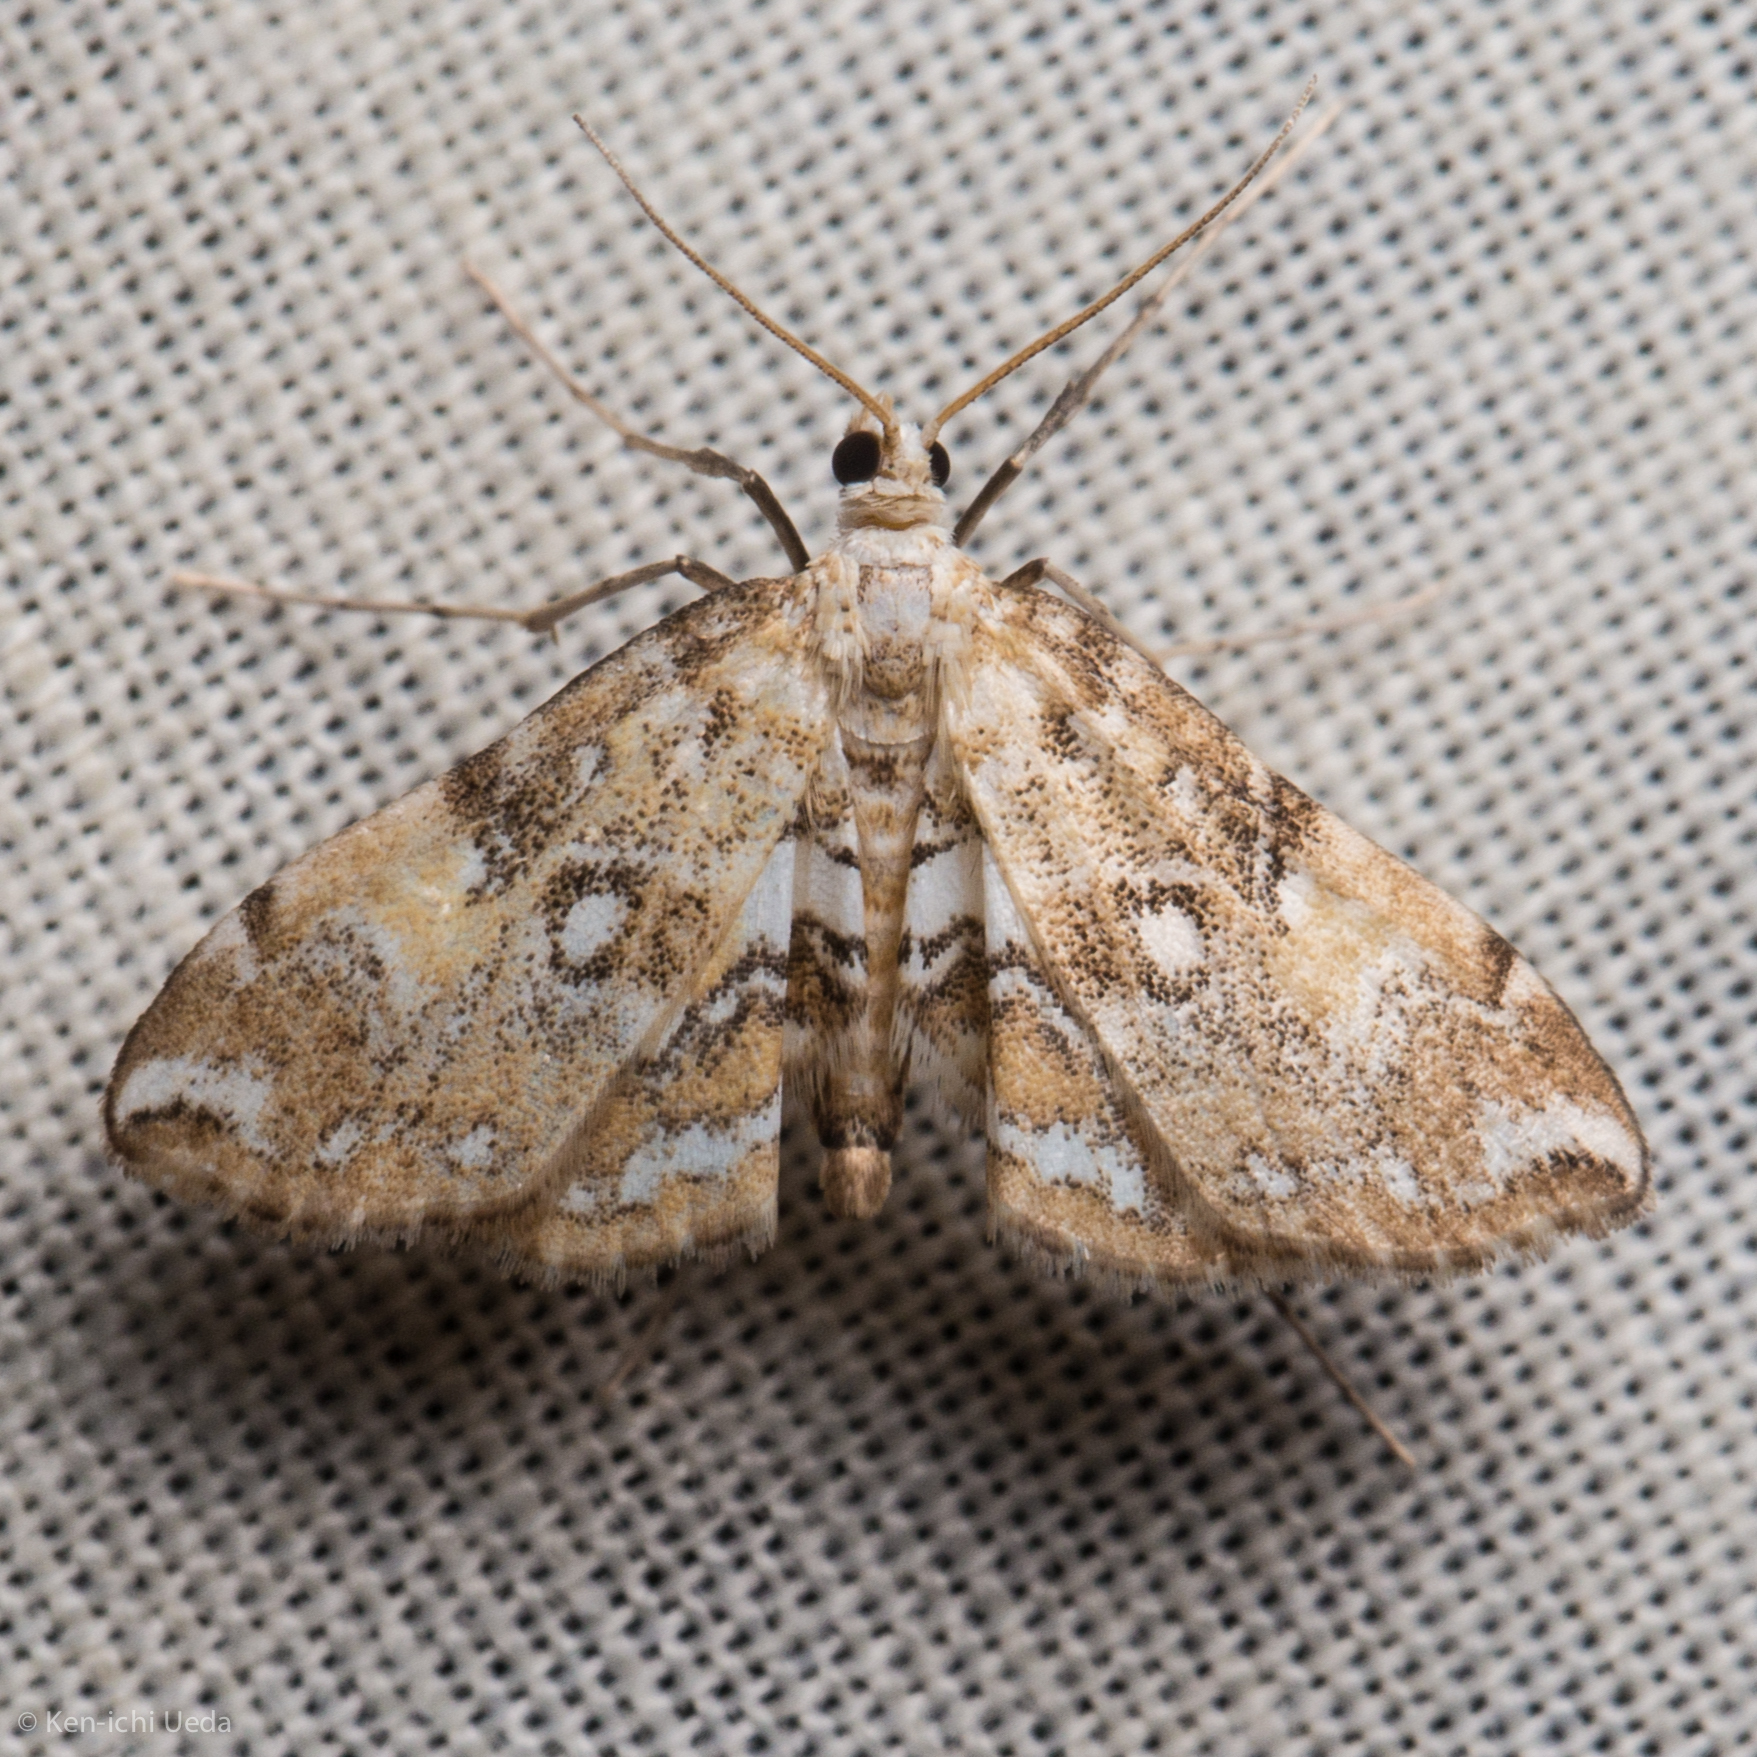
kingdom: Animalia
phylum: Arthropoda
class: Insecta
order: Lepidoptera
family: Crambidae
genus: Elophila
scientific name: Elophila faulalis
